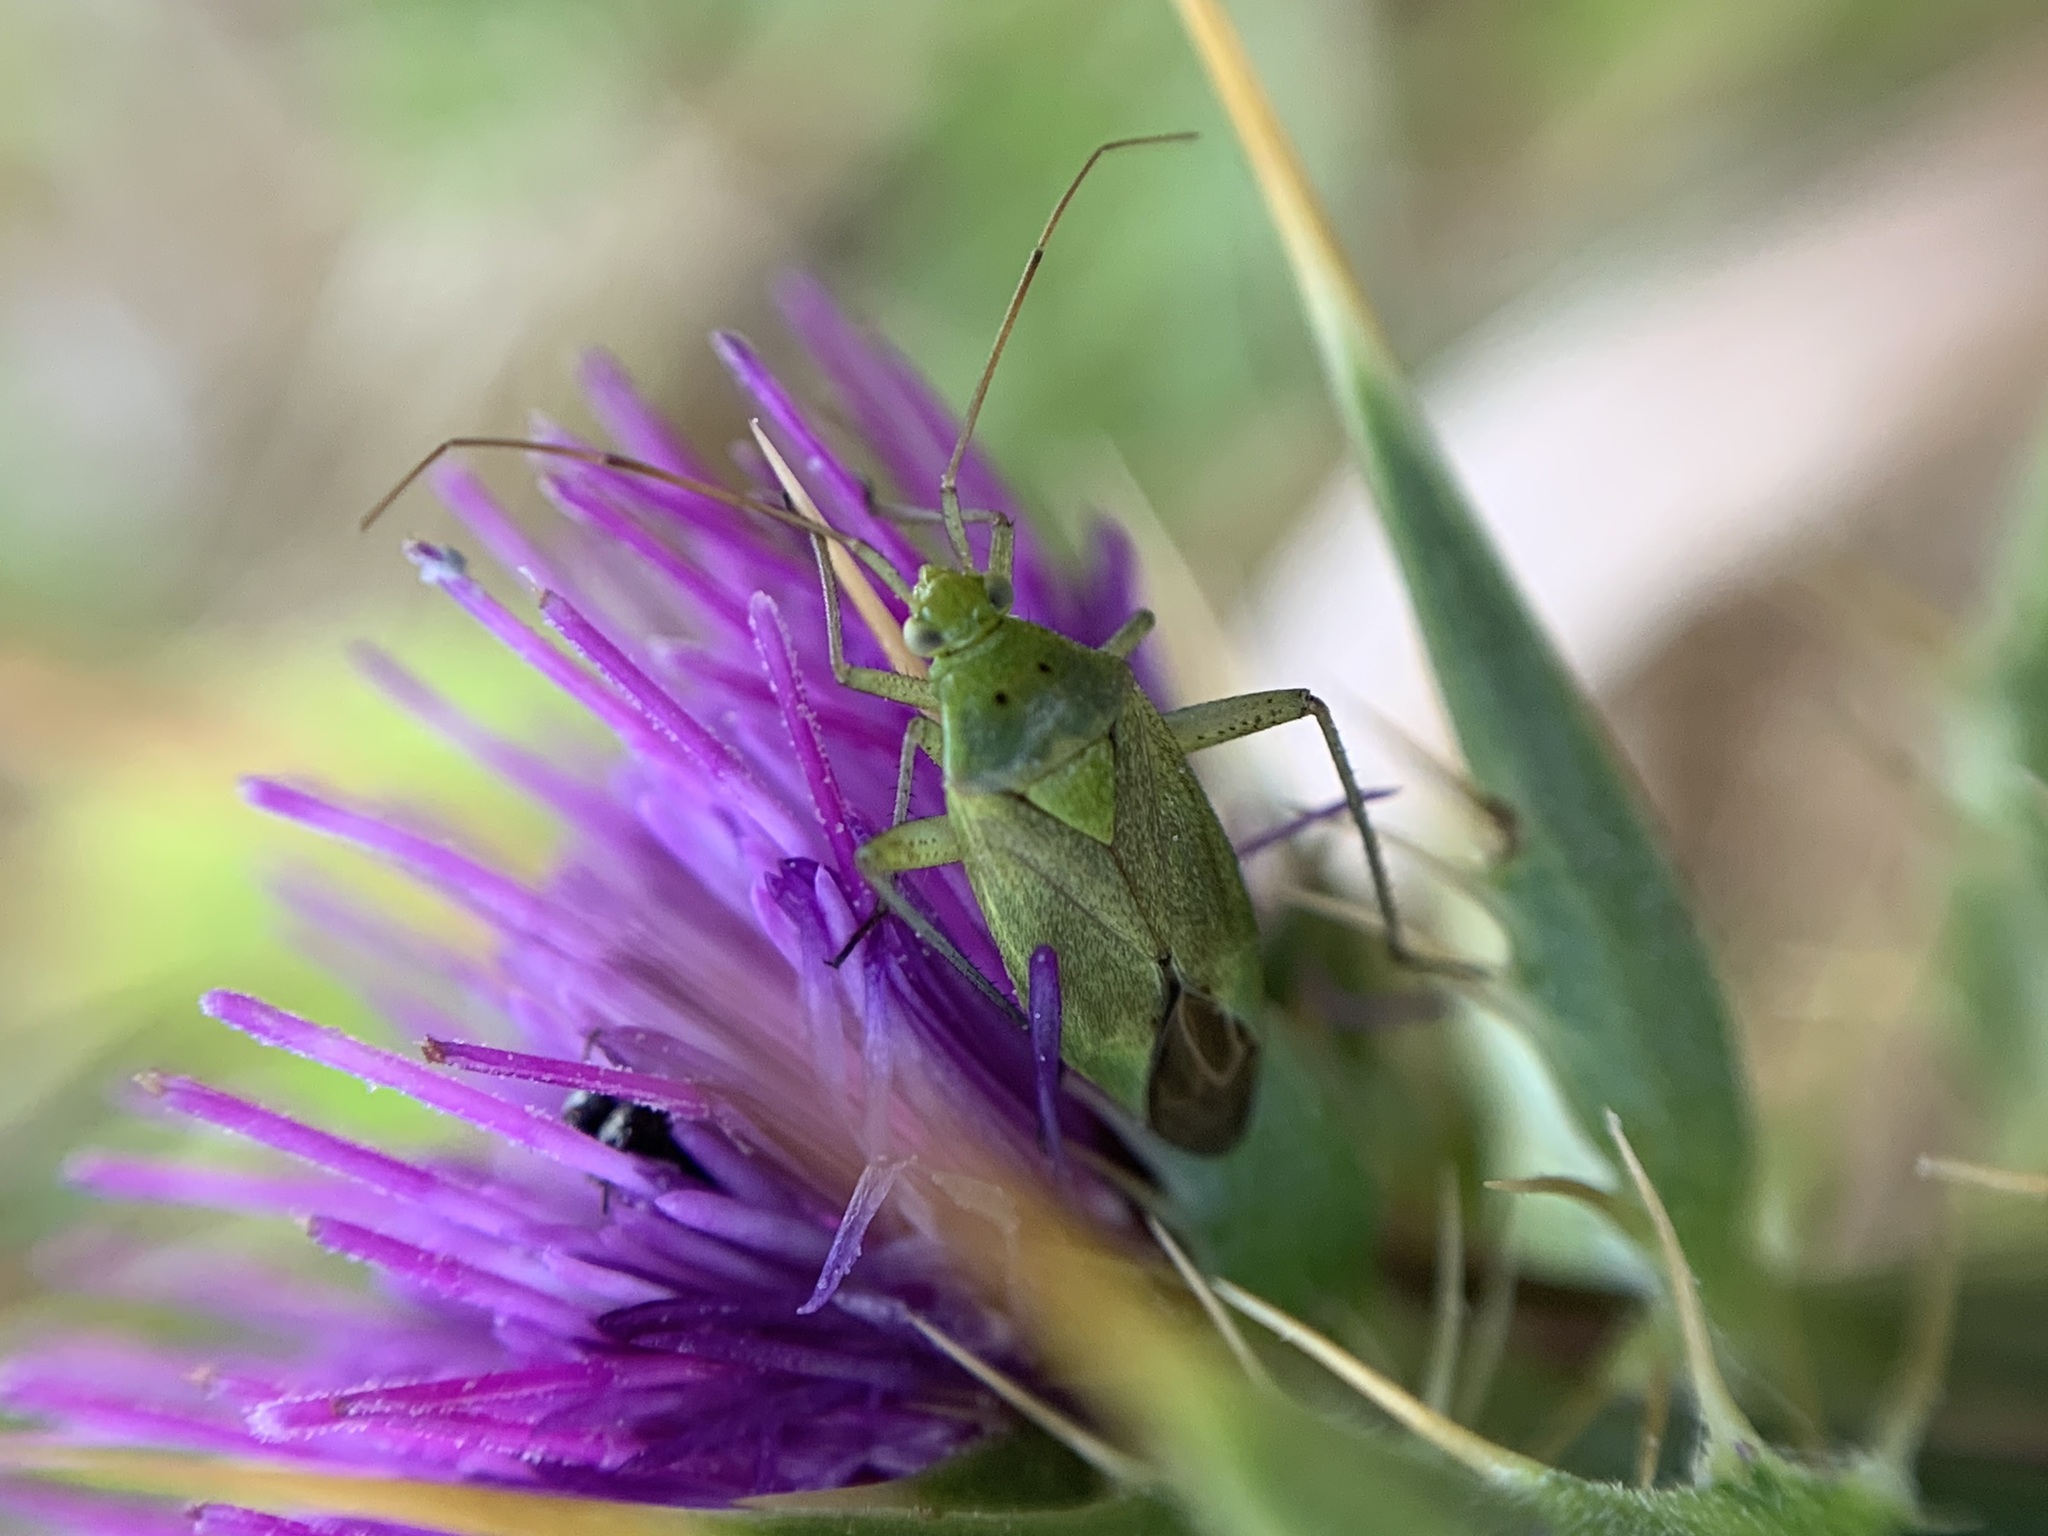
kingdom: Animalia
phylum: Arthropoda
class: Insecta
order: Hemiptera
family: Miridae
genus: Closterotomus
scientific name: Closterotomus norvegicus
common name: Plant bug
